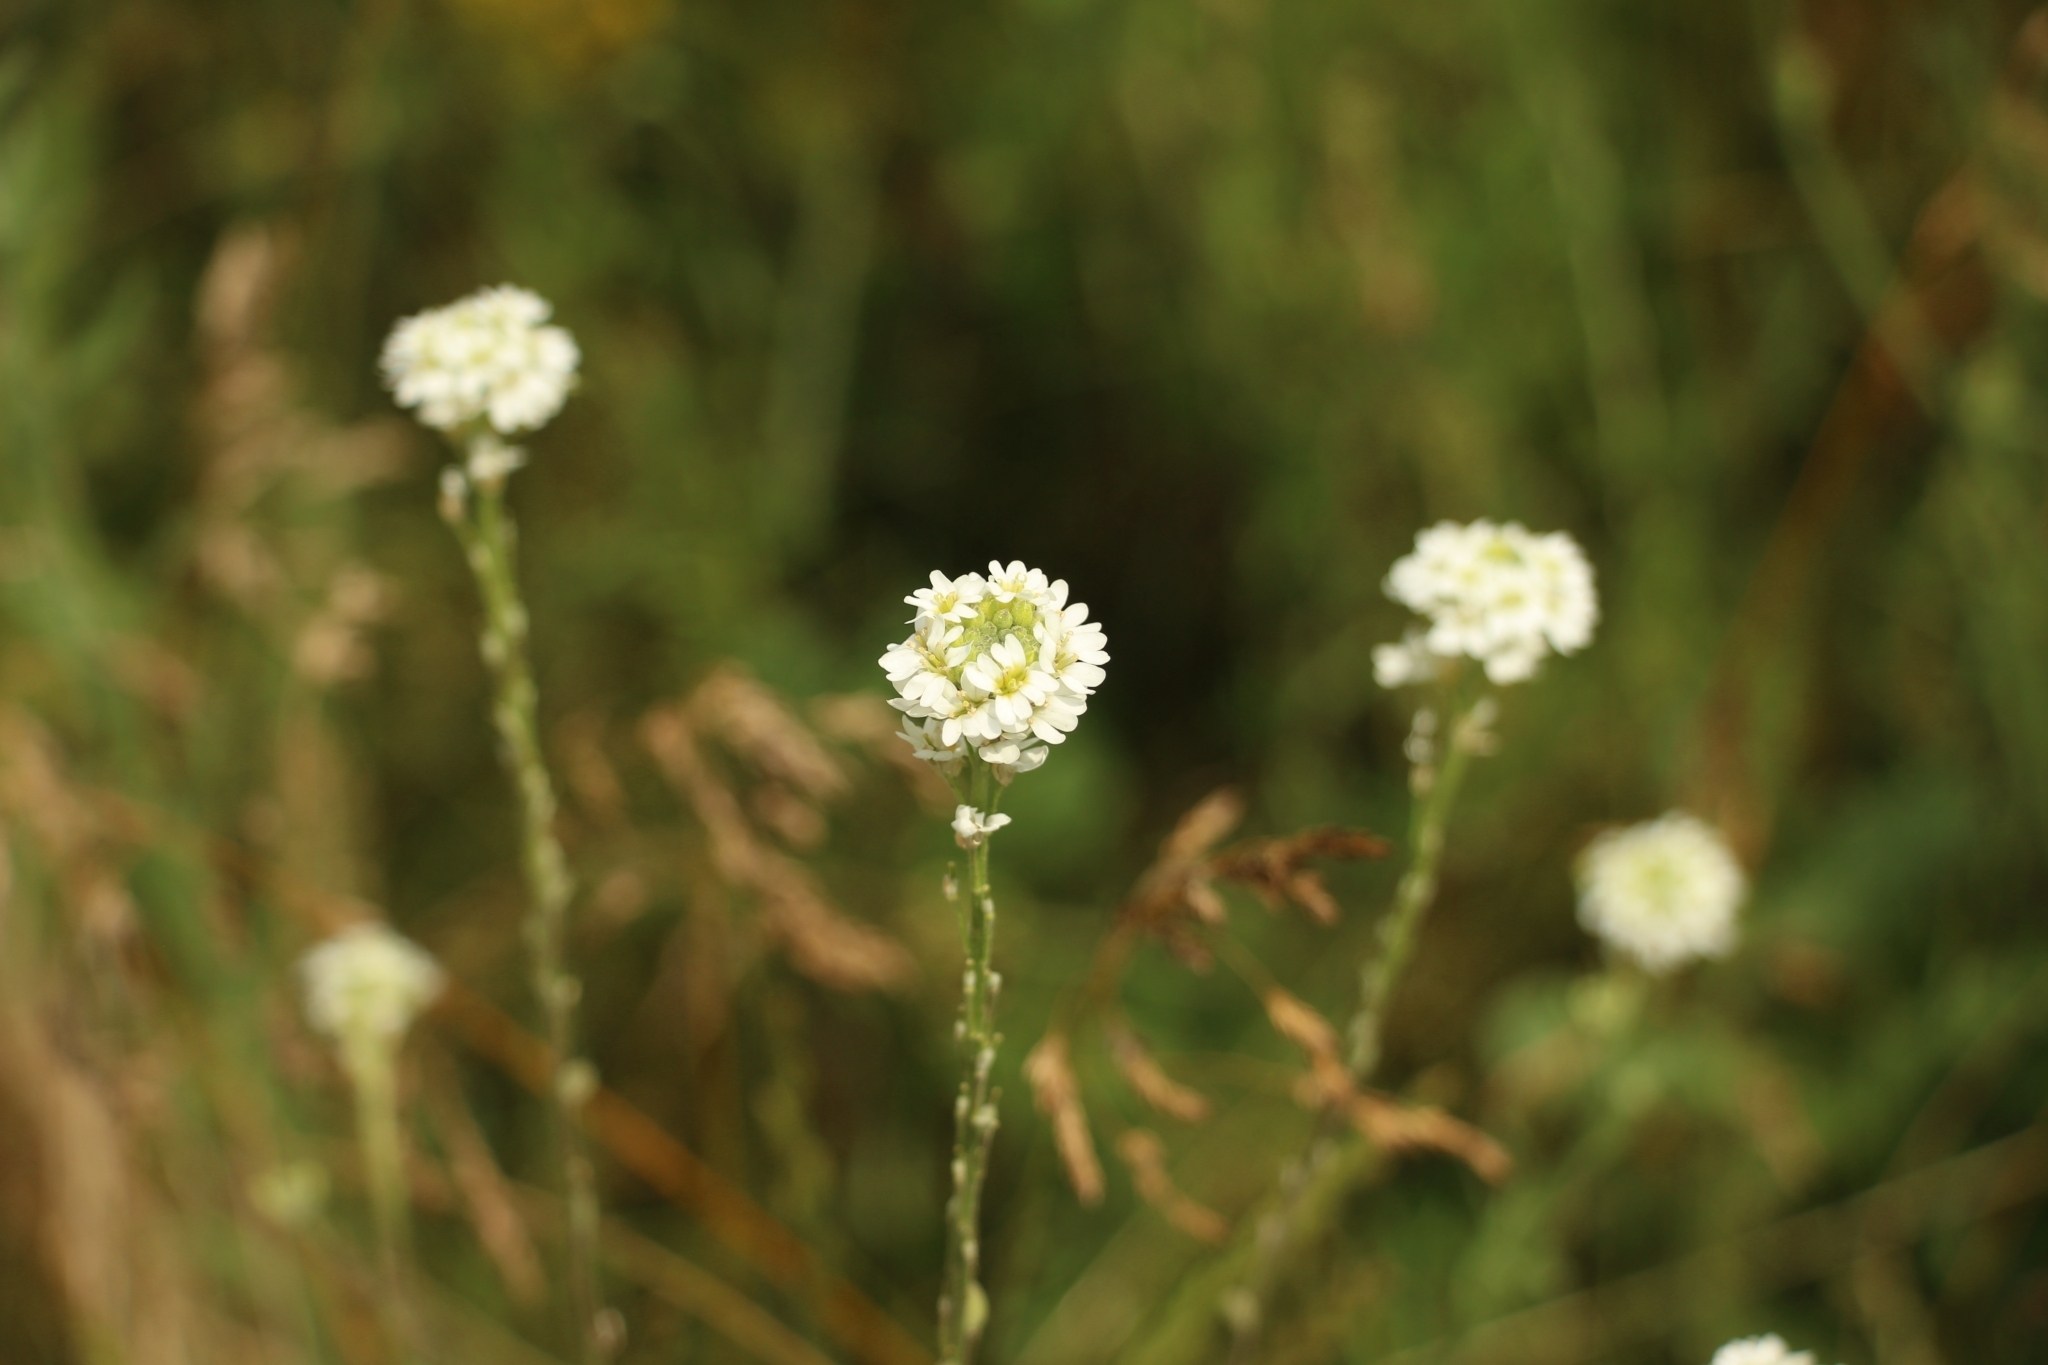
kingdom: Plantae
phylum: Tracheophyta
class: Magnoliopsida
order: Brassicales
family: Brassicaceae
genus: Berteroa
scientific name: Berteroa incana
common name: Hoary alison
